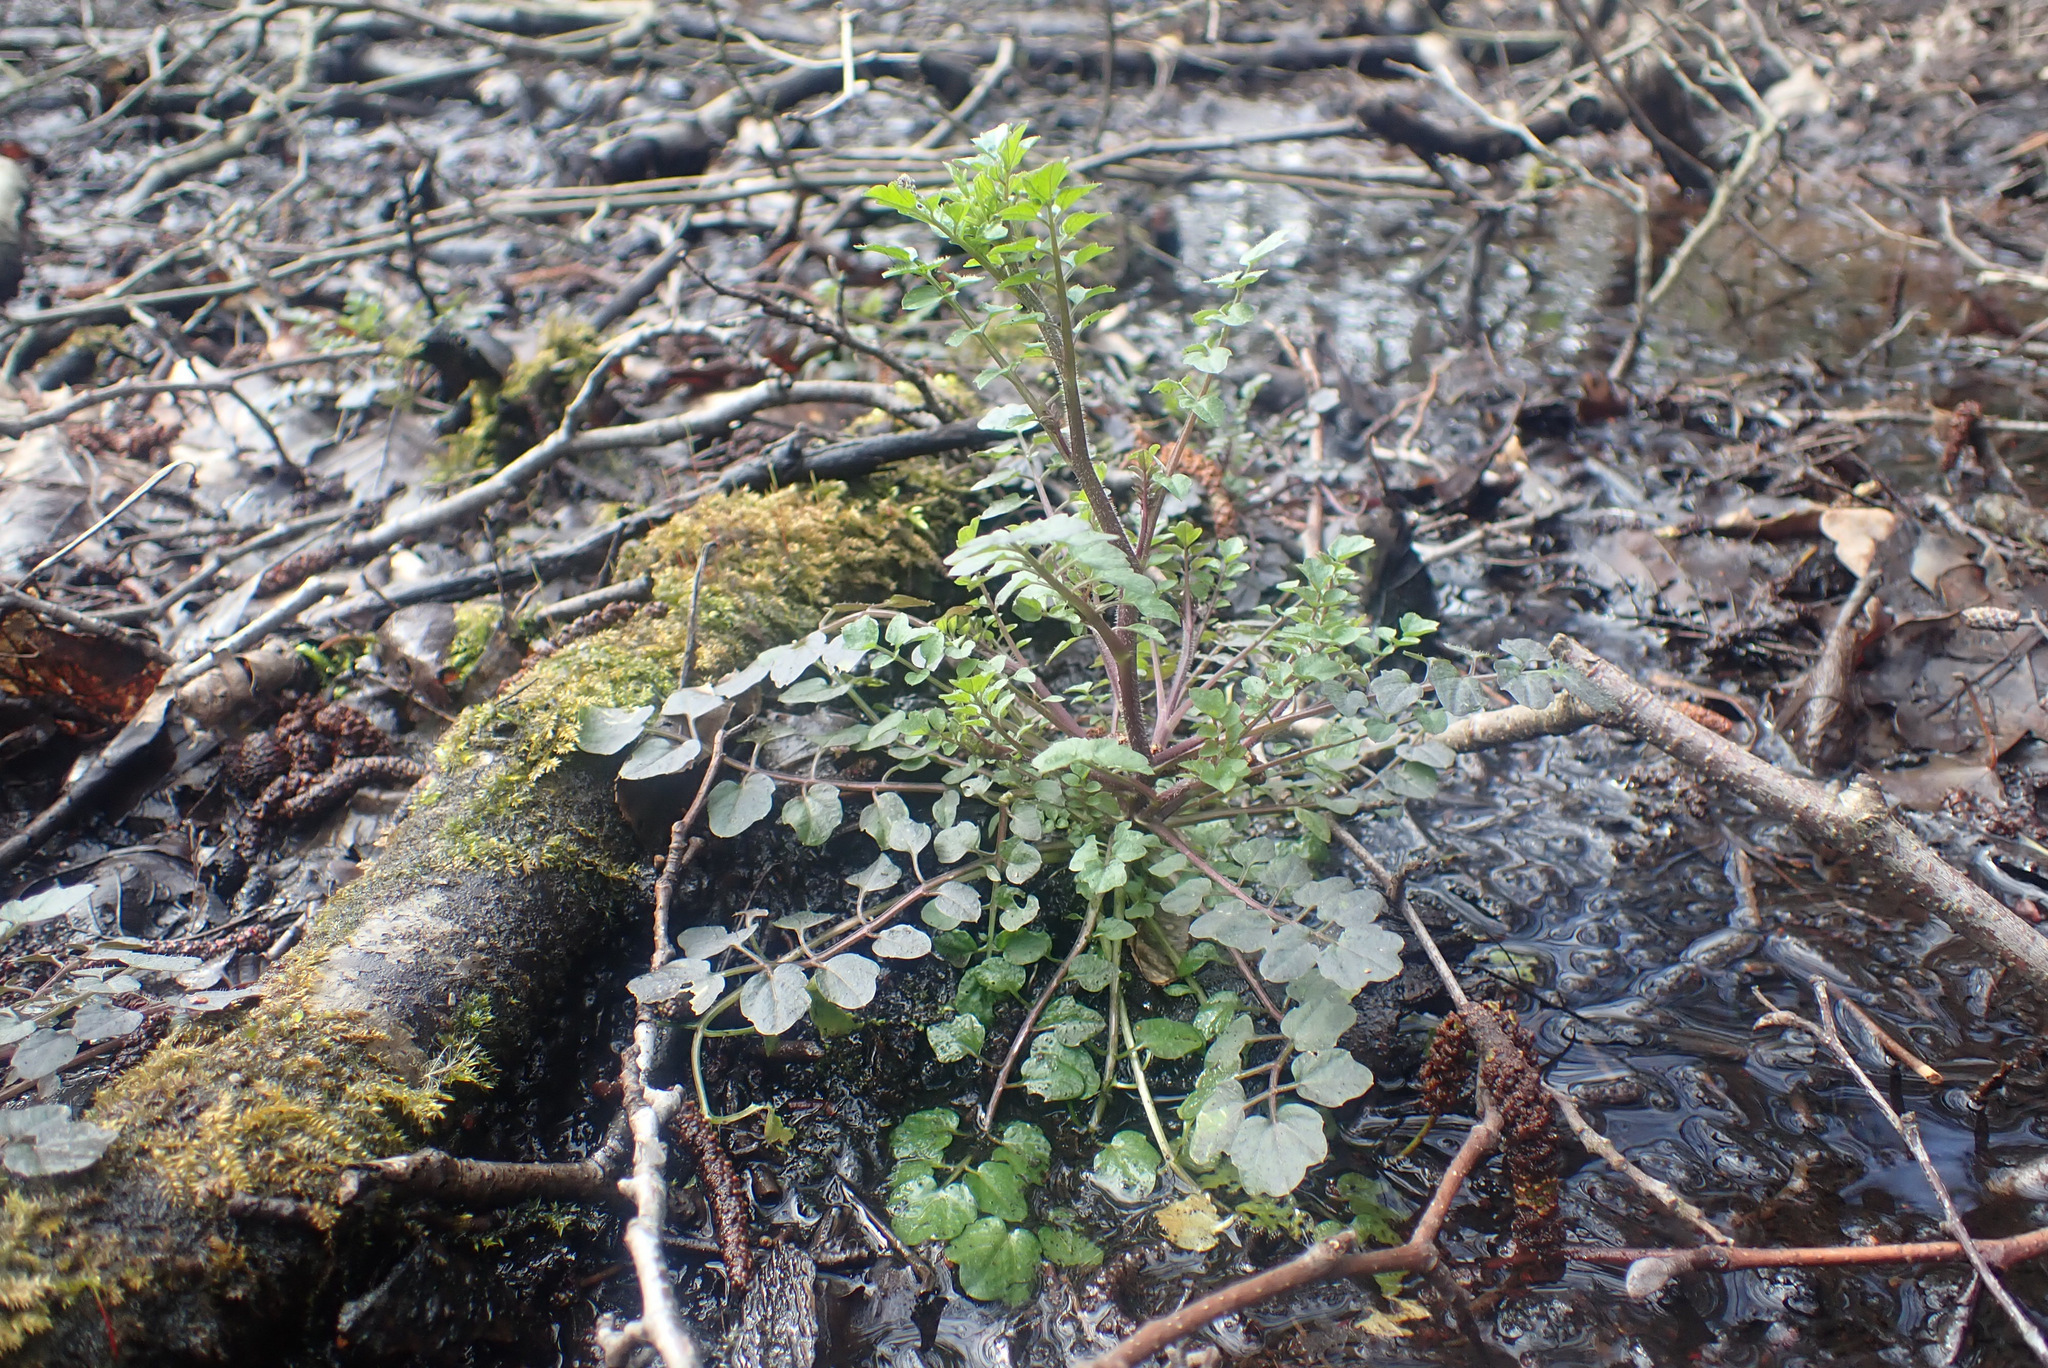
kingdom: Plantae
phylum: Tracheophyta
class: Magnoliopsida
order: Brassicales
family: Brassicaceae
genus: Cardamine
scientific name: Cardamine flexuosa
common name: Woodland bittercress
